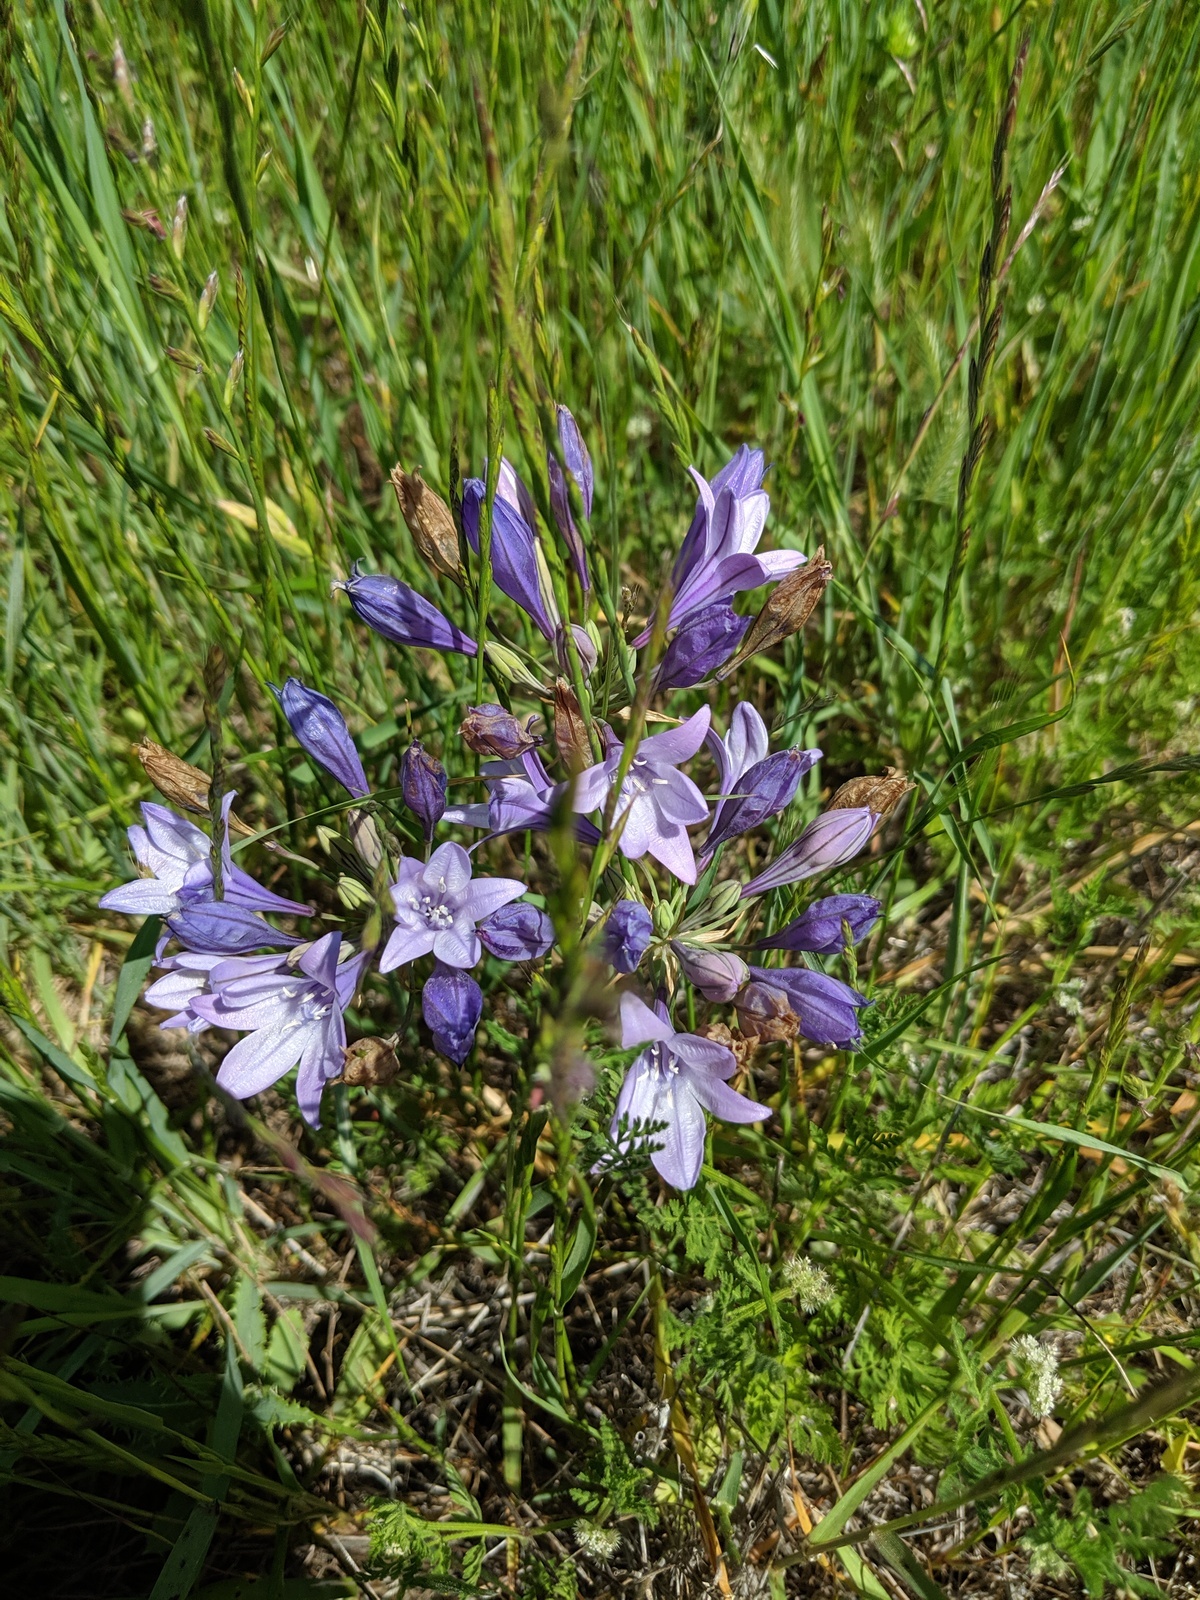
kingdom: Plantae
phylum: Tracheophyta
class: Liliopsida
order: Asparagales
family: Asparagaceae
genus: Triteleia
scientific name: Triteleia laxa
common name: Triplet-lily
